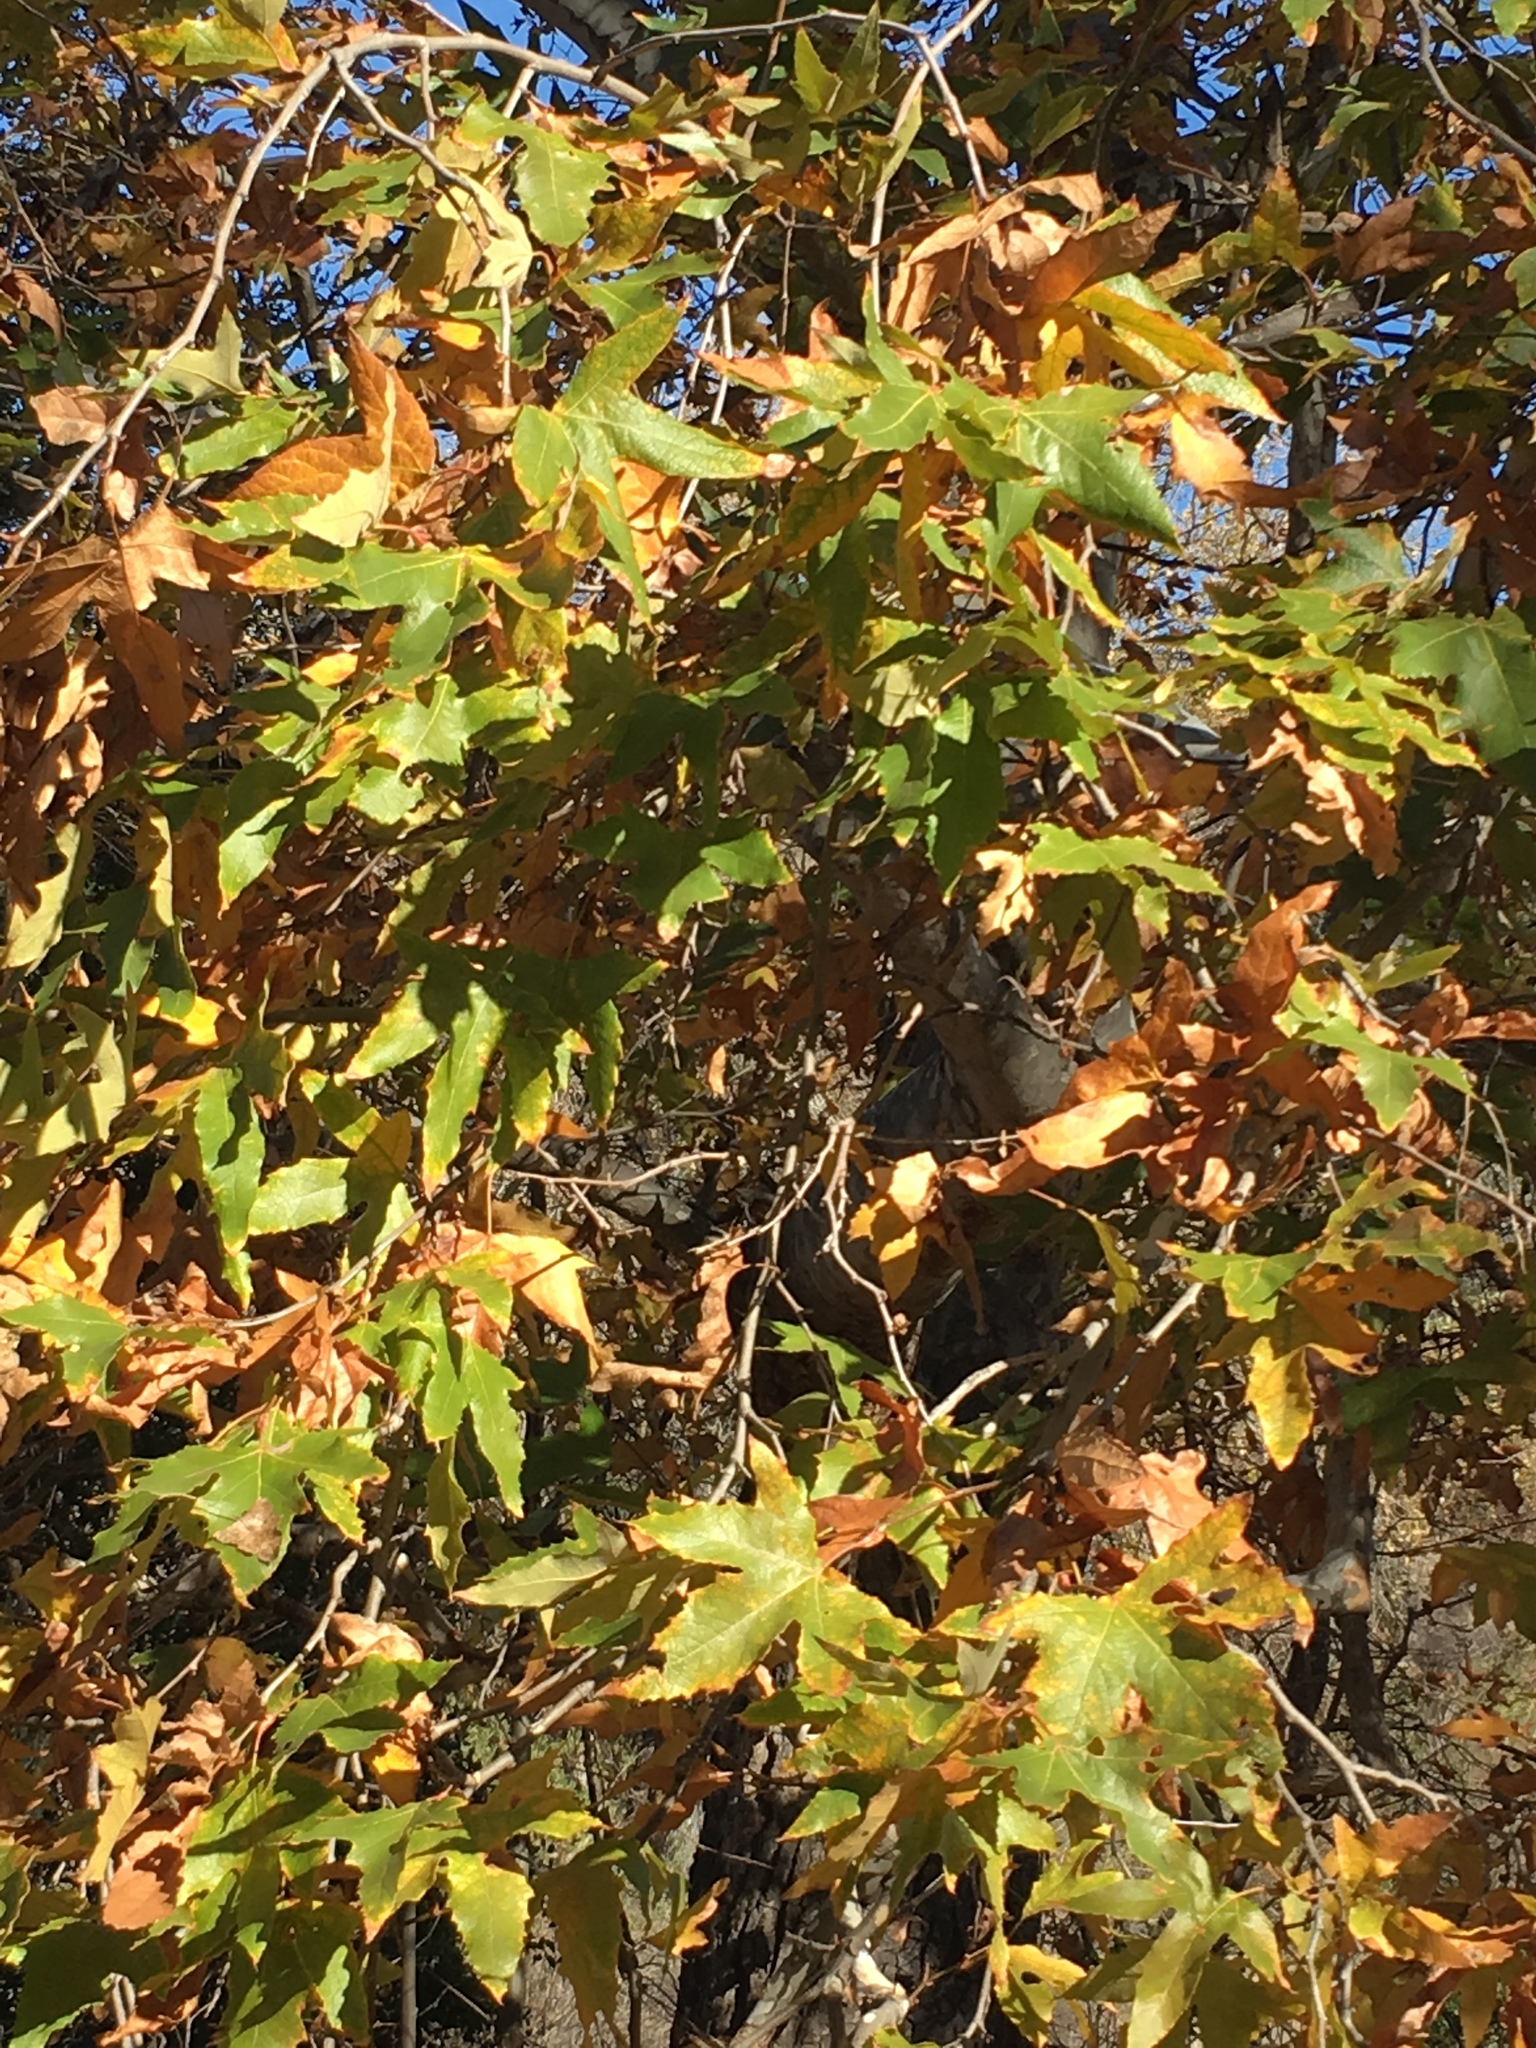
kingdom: Plantae
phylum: Tracheophyta
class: Magnoliopsida
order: Proteales
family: Platanaceae
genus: Platanus
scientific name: Platanus racemosa
